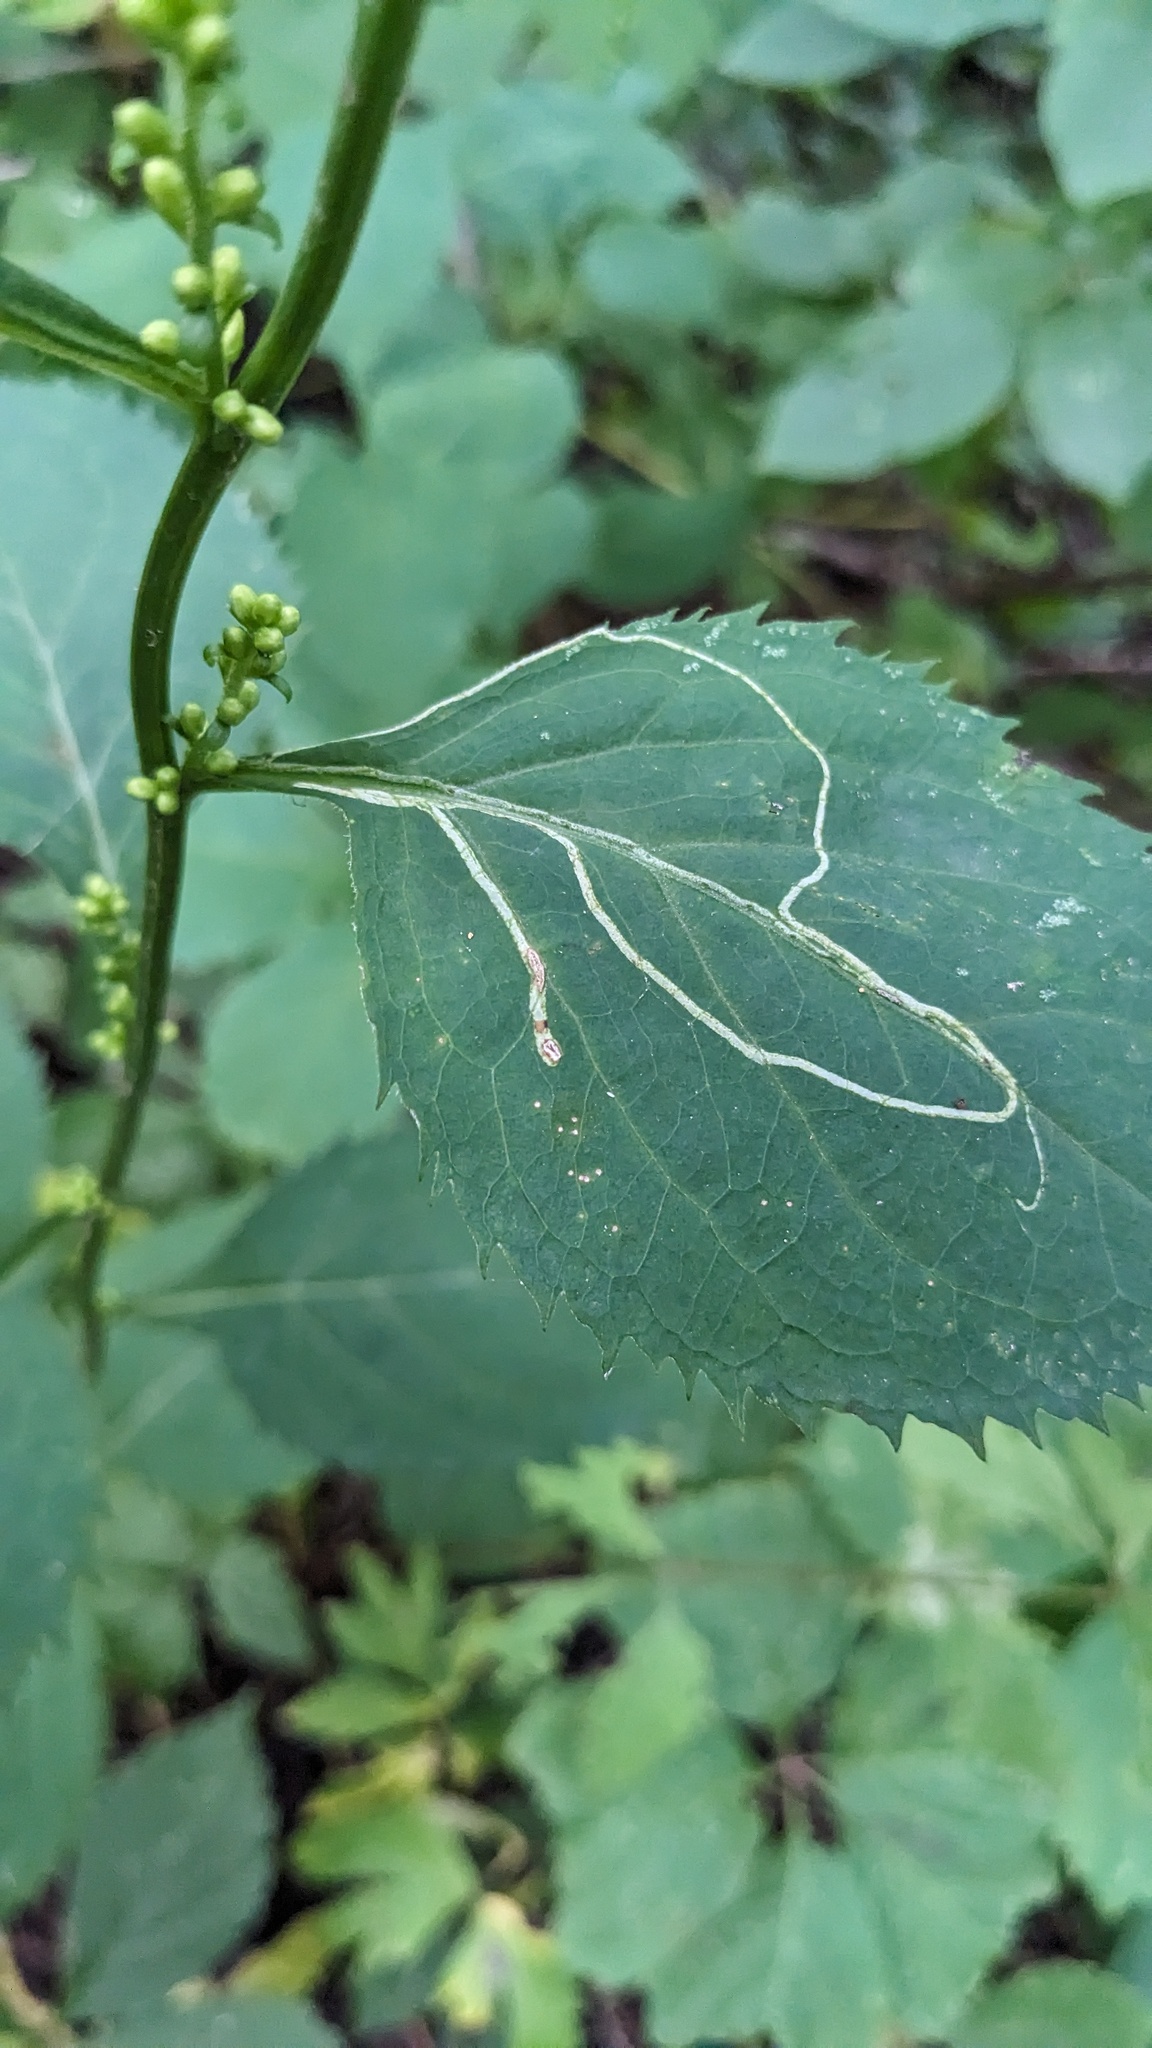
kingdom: Animalia
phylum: Arthropoda
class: Insecta
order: Diptera
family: Agromyzidae
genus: Ophiomyia
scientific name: Ophiomyia maura
